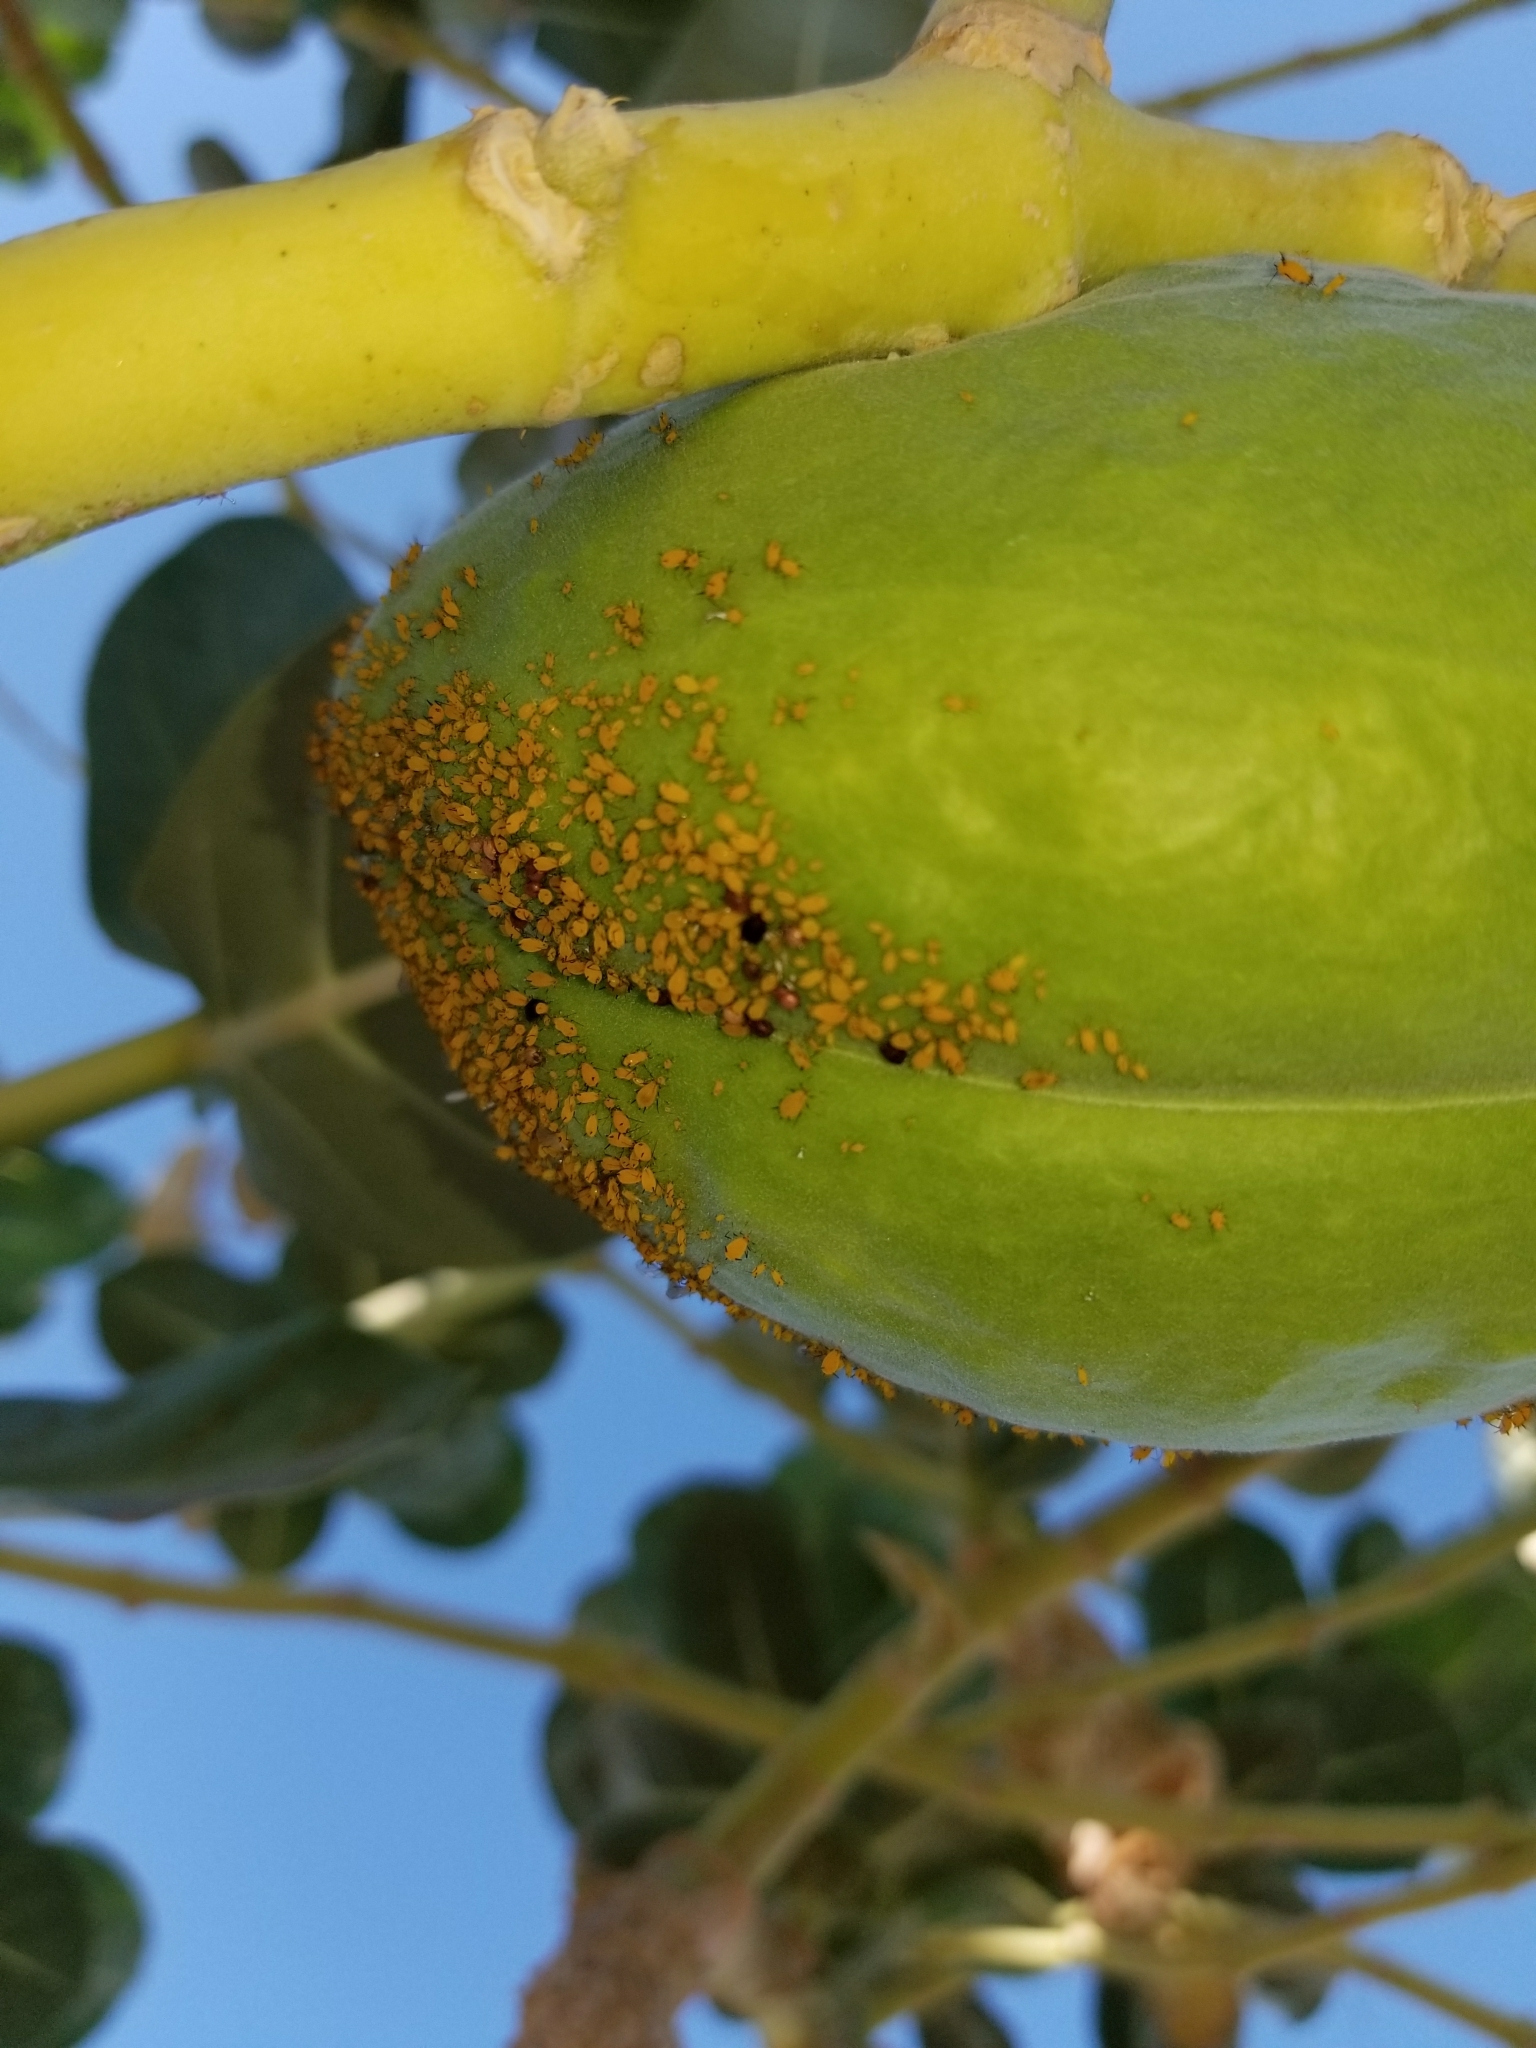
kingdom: Animalia
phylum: Arthropoda
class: Insecta
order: Hemiptera
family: Aphididae
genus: Aphis
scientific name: Aphis nerii
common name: Oleander aphid
